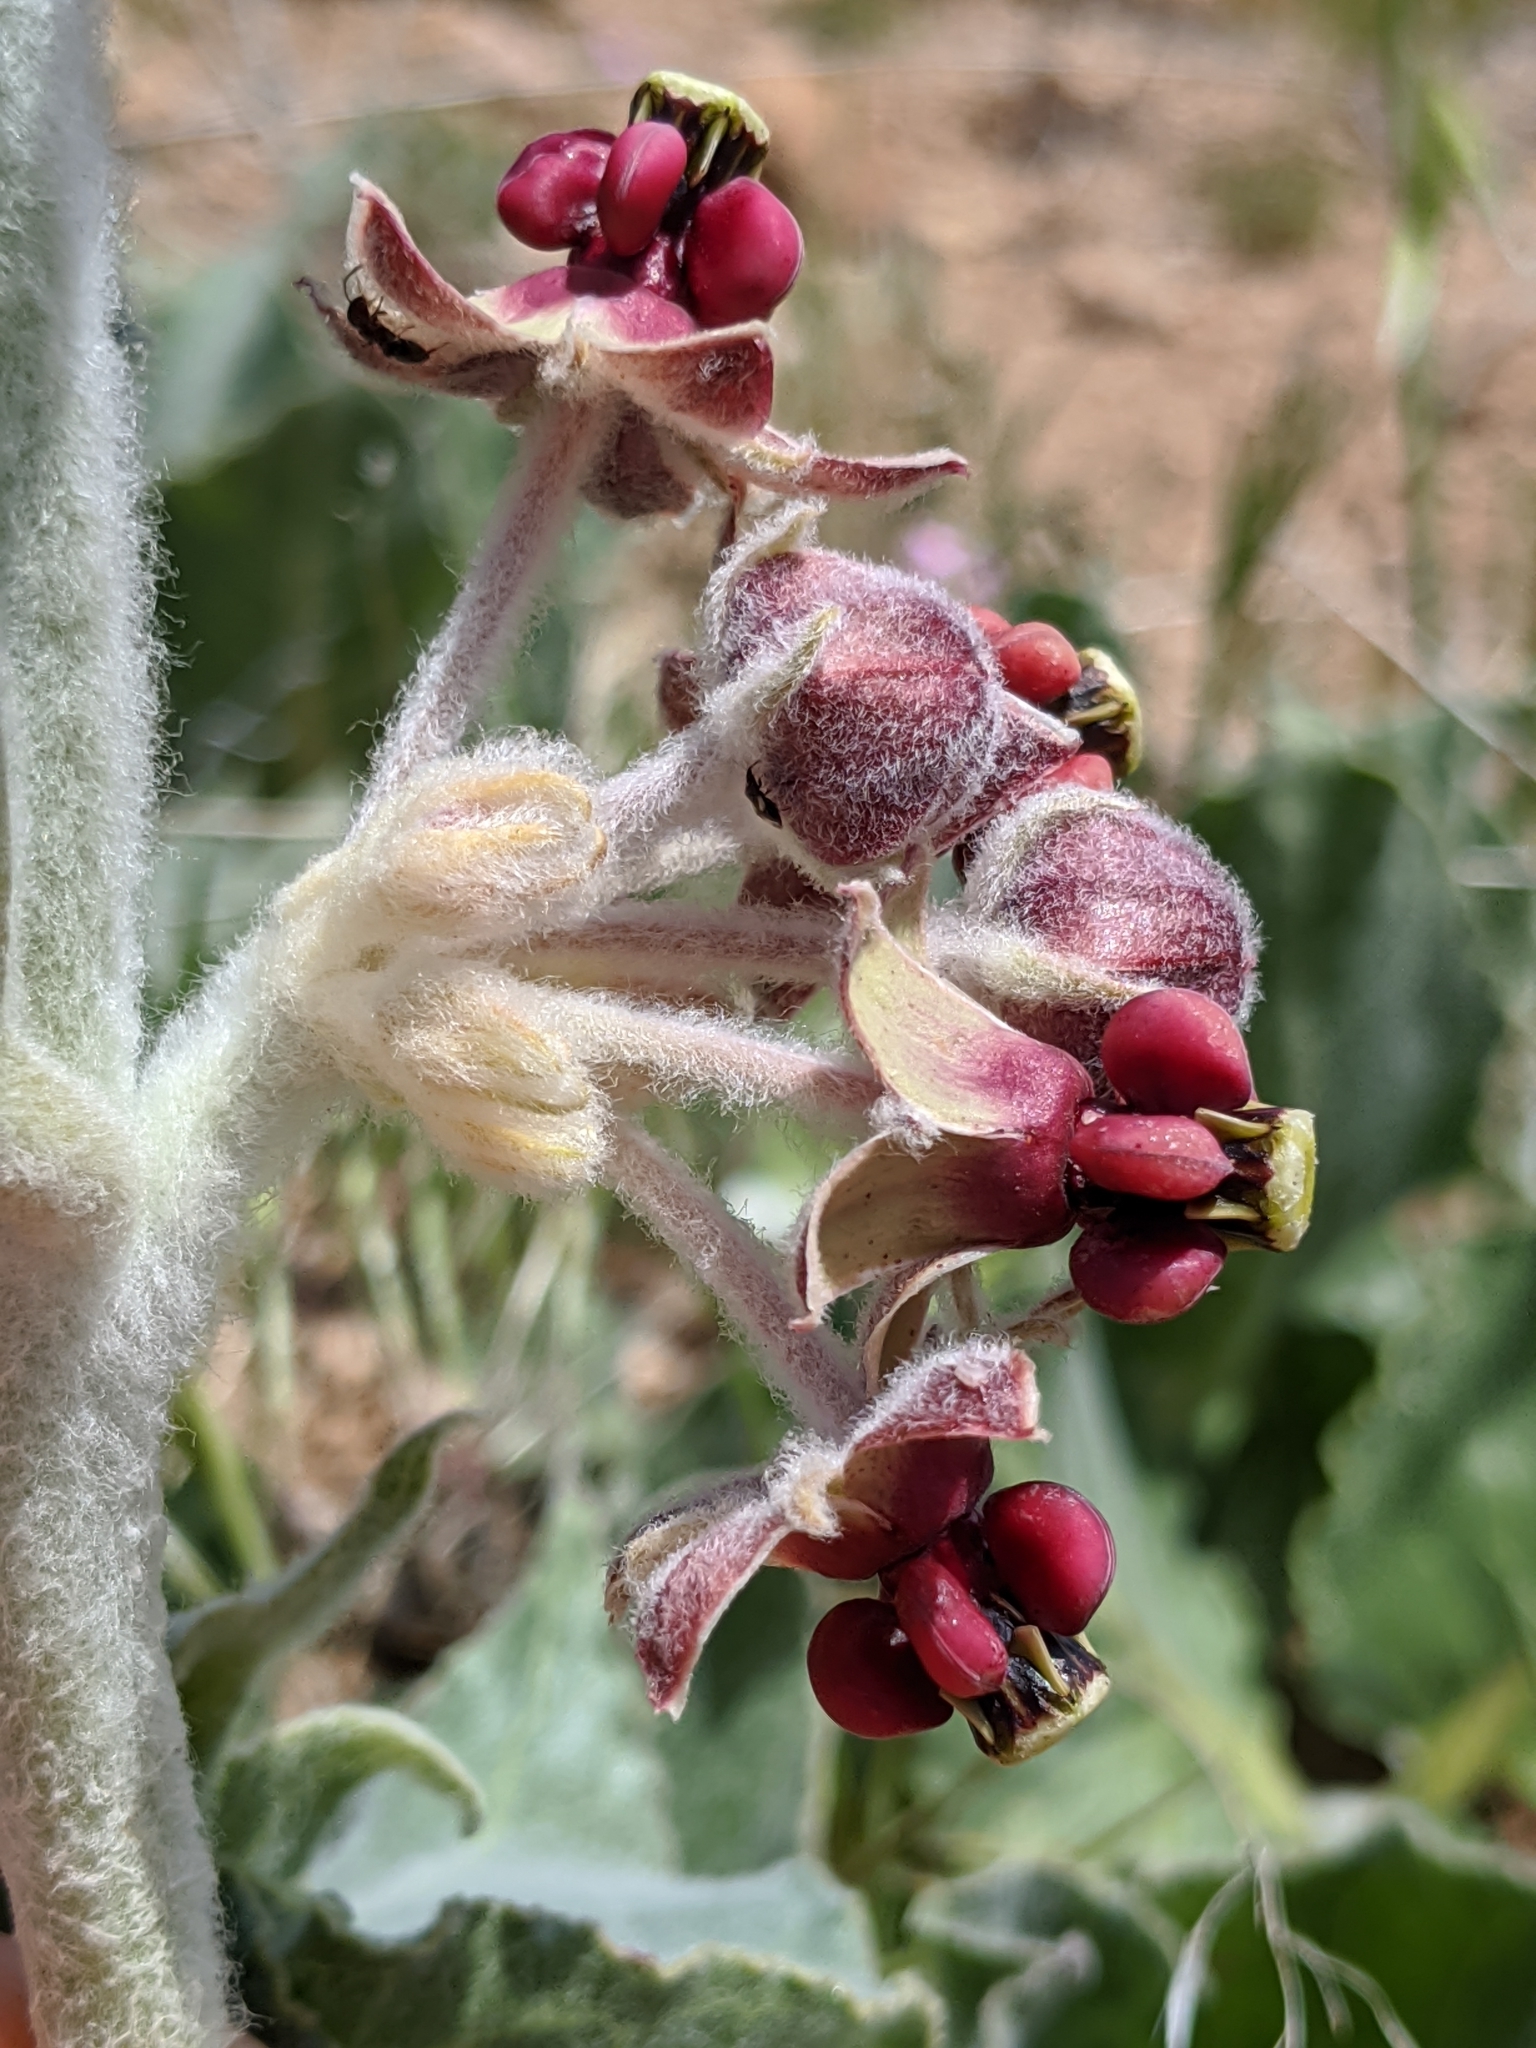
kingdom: Plantae
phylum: Tracheophyta
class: Magnoliopsida
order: Gentianales
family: Apocynaceae
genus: Asclepias
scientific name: Asclepias californica
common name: California milkweed
